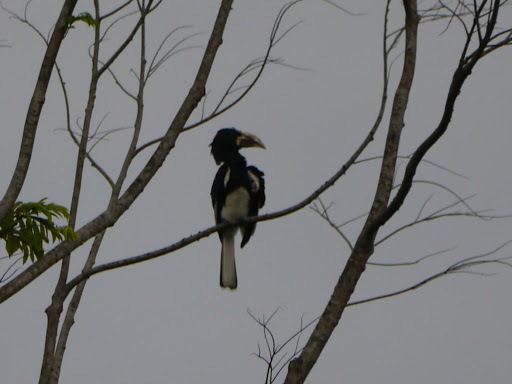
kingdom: Animalia
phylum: Chordata
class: Aves
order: Bucerotiformes
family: Bucerotidae
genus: Bycanistes
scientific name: Bycanistes fistulator
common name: Piping hornbill
